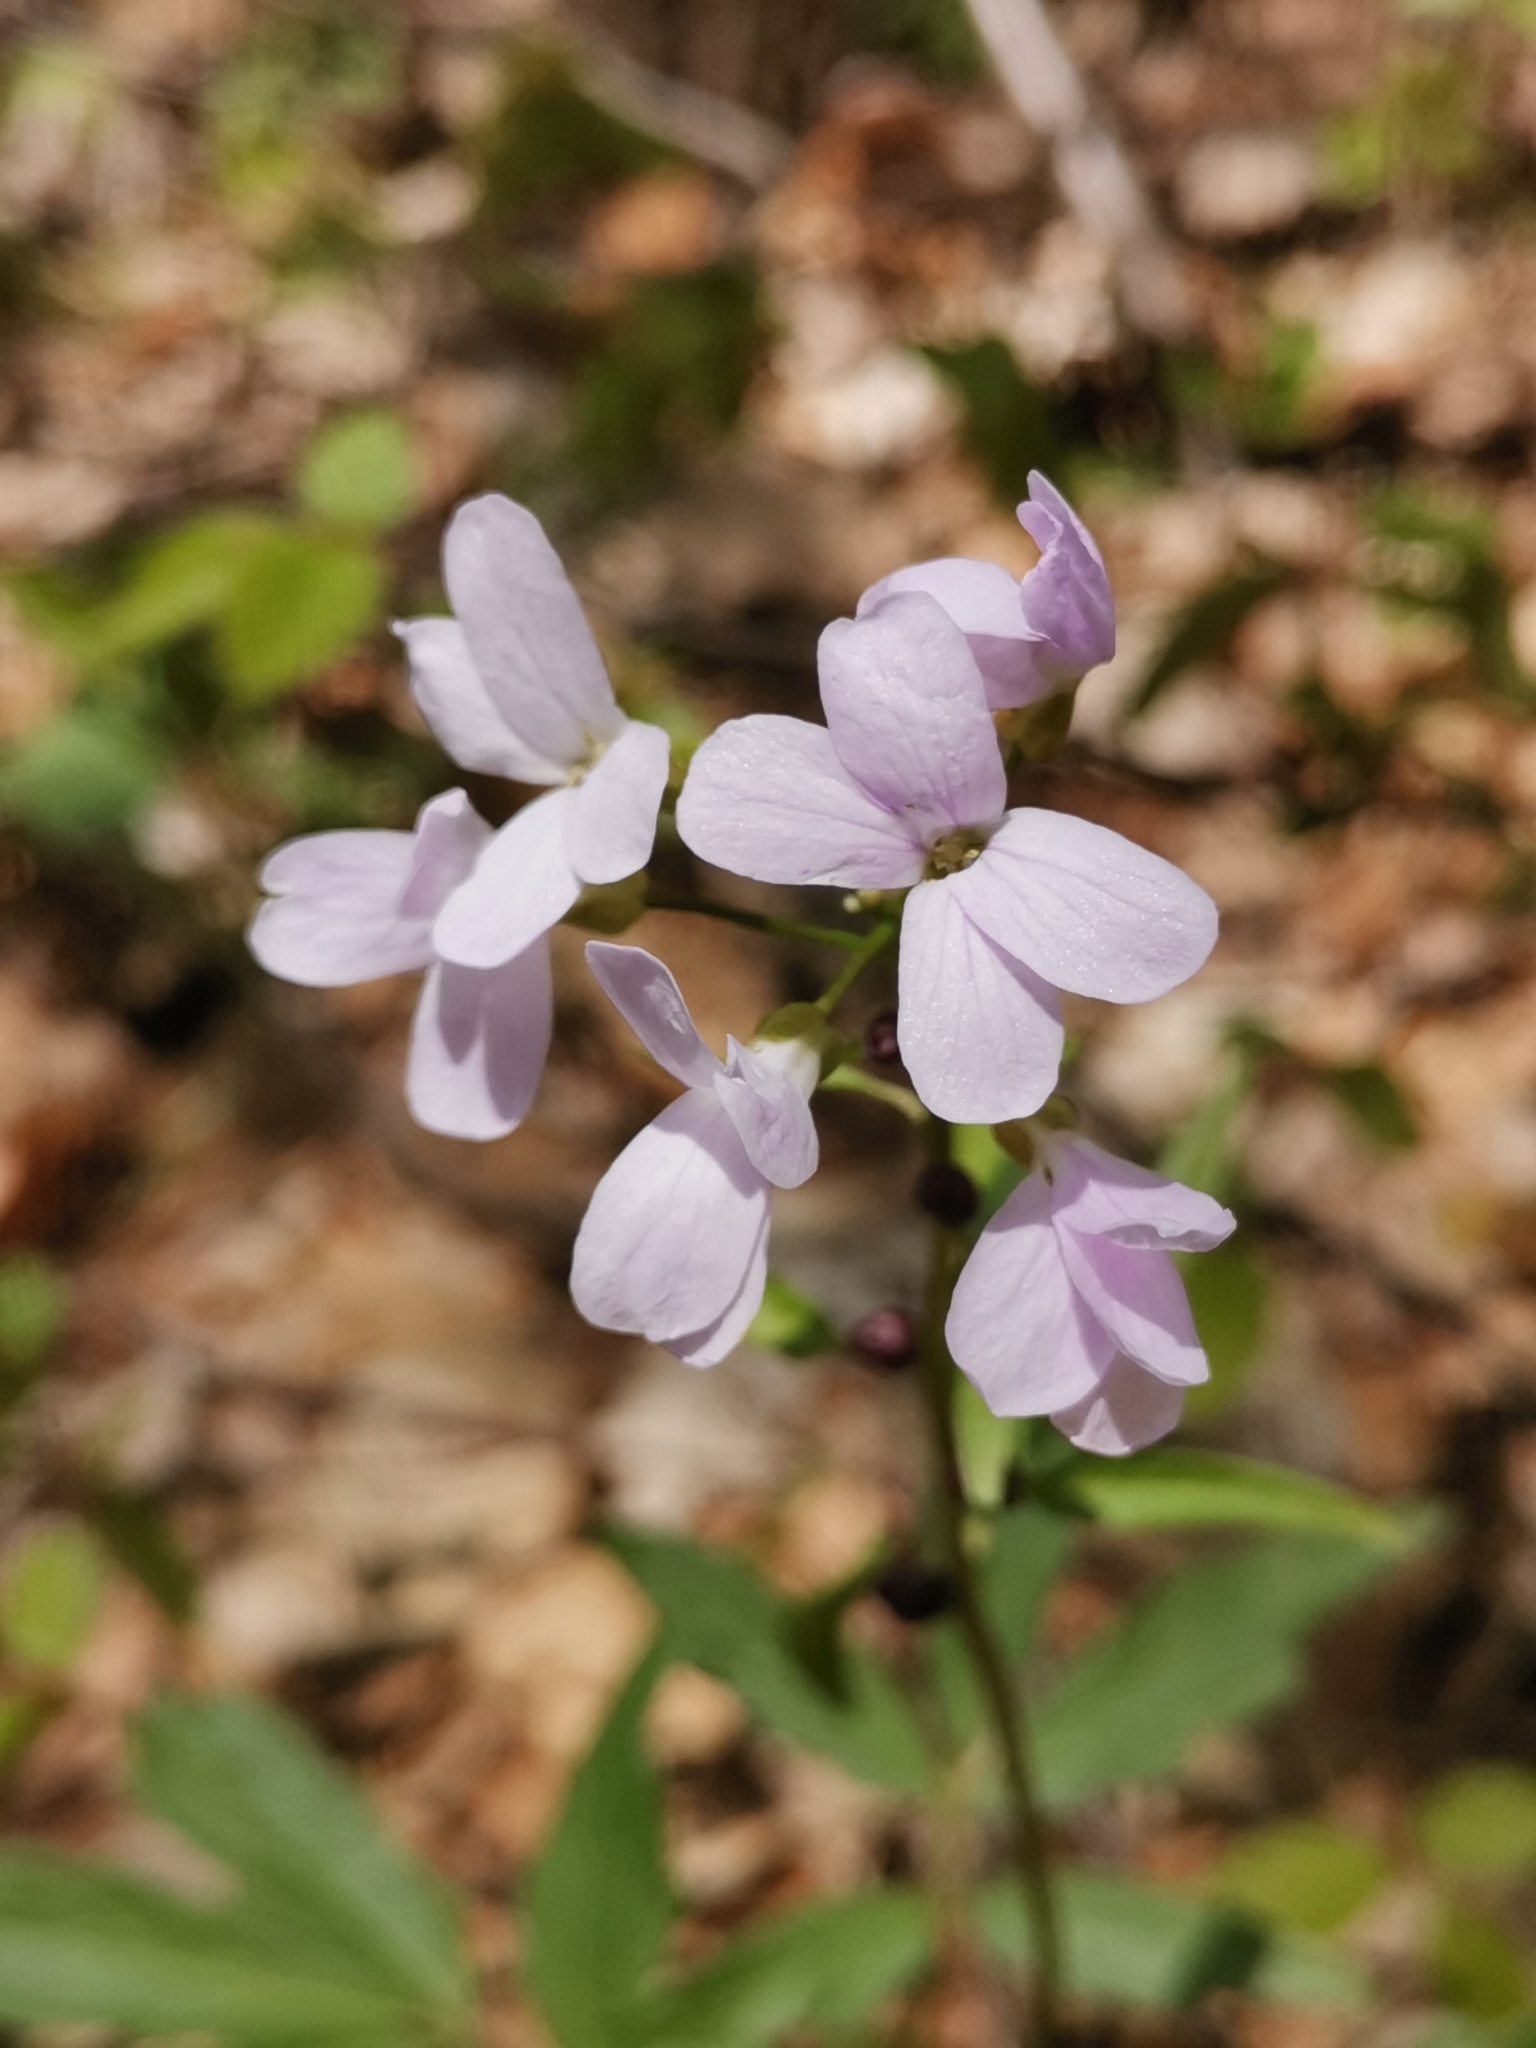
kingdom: Plantae
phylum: Tracheophyta
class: Magnoliopsida
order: Brassicales
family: Brassicaceae
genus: Cardamine
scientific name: Cardamine bulbifera
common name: Coralroot bittercress
